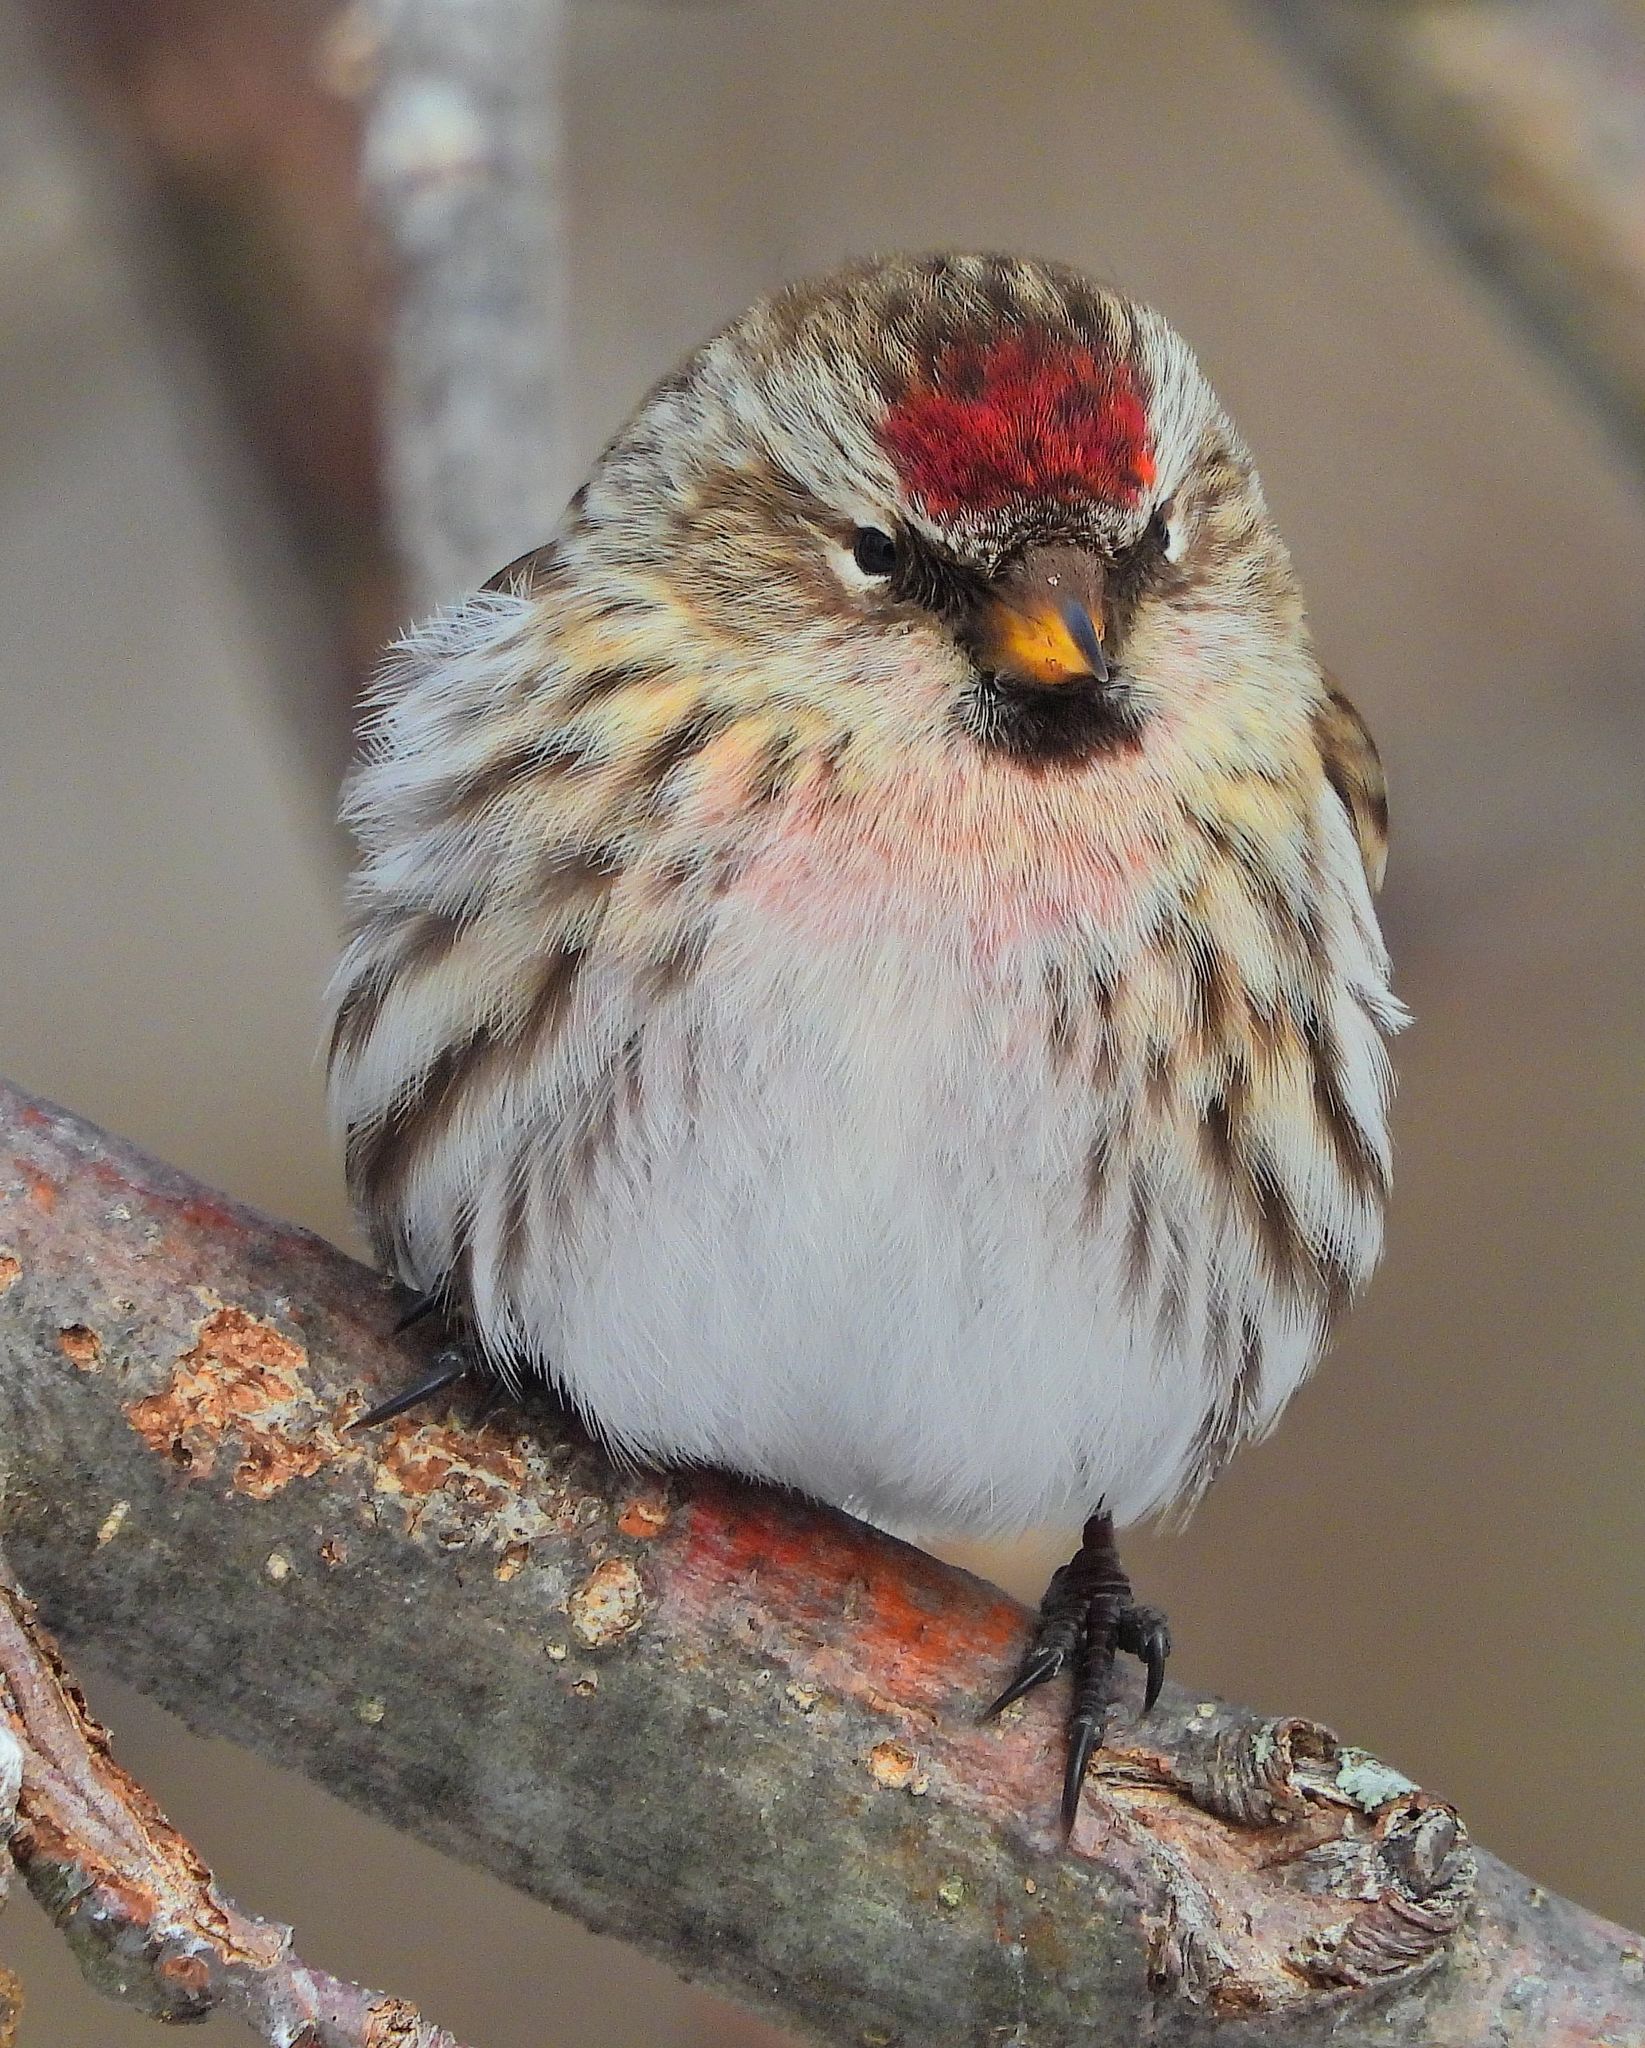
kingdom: Animalia
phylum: Chordata
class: Aves
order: Passeriformes
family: Fringillidae
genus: Acanthis
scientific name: Acanthis flammea
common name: Common redpoll
